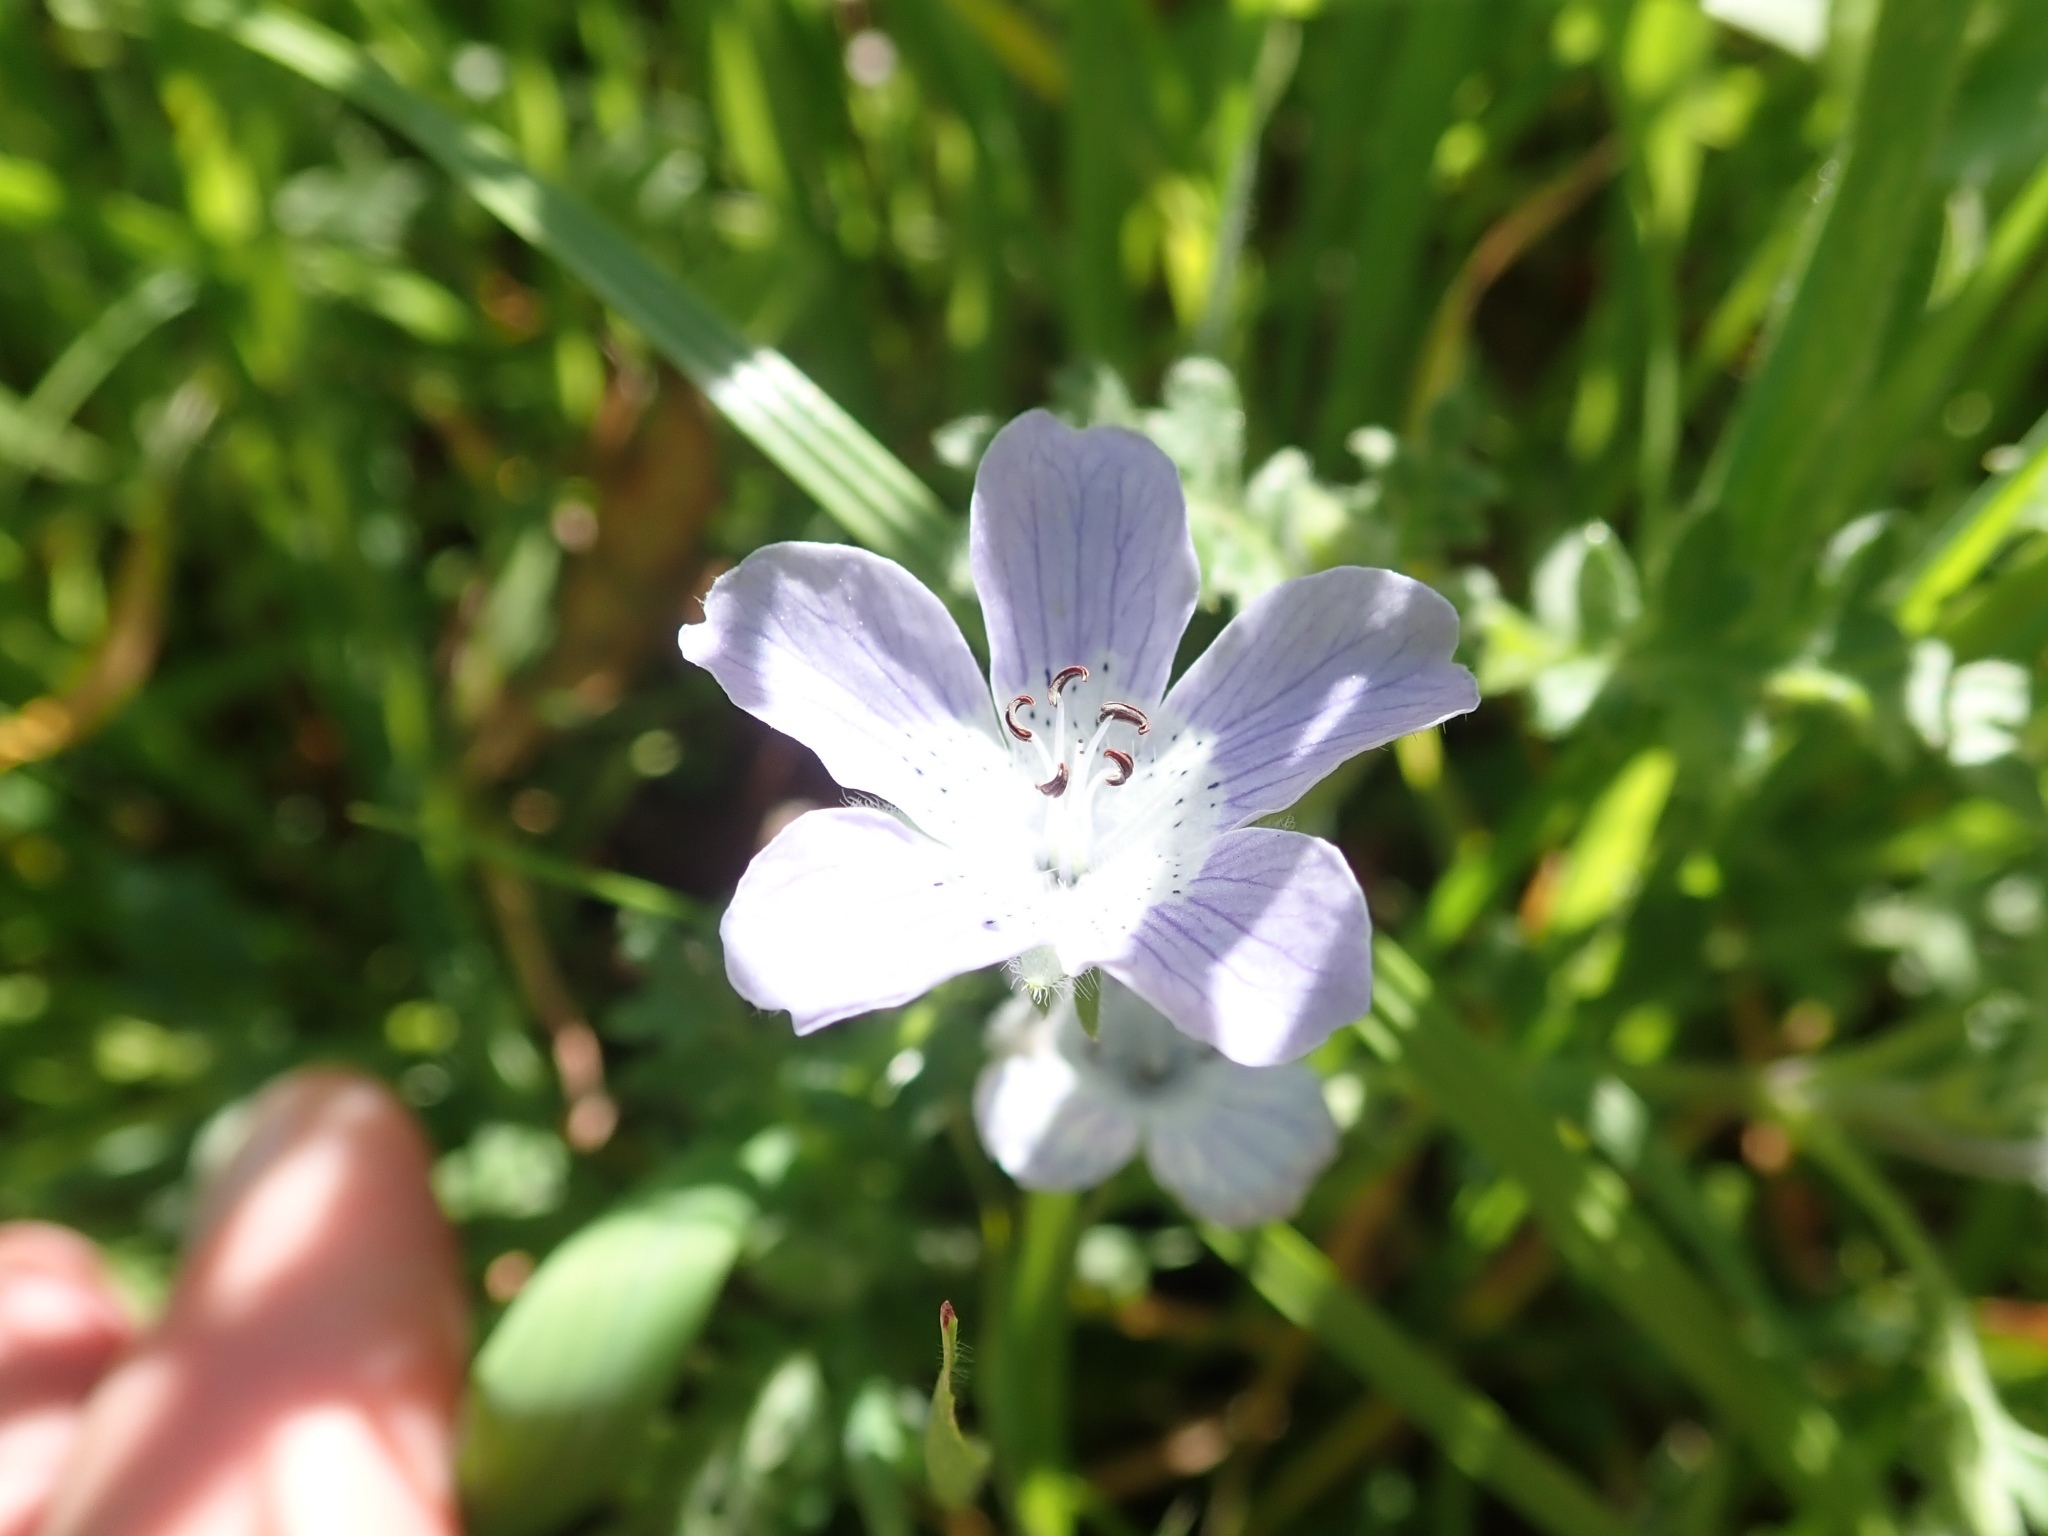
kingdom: Plantae
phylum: Tracheophyta
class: Magnoliopsida
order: Boraginales
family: Hydrophyllaceae
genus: Nemophila
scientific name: Nemophila menziesii
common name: Baby's-blue-eyes
